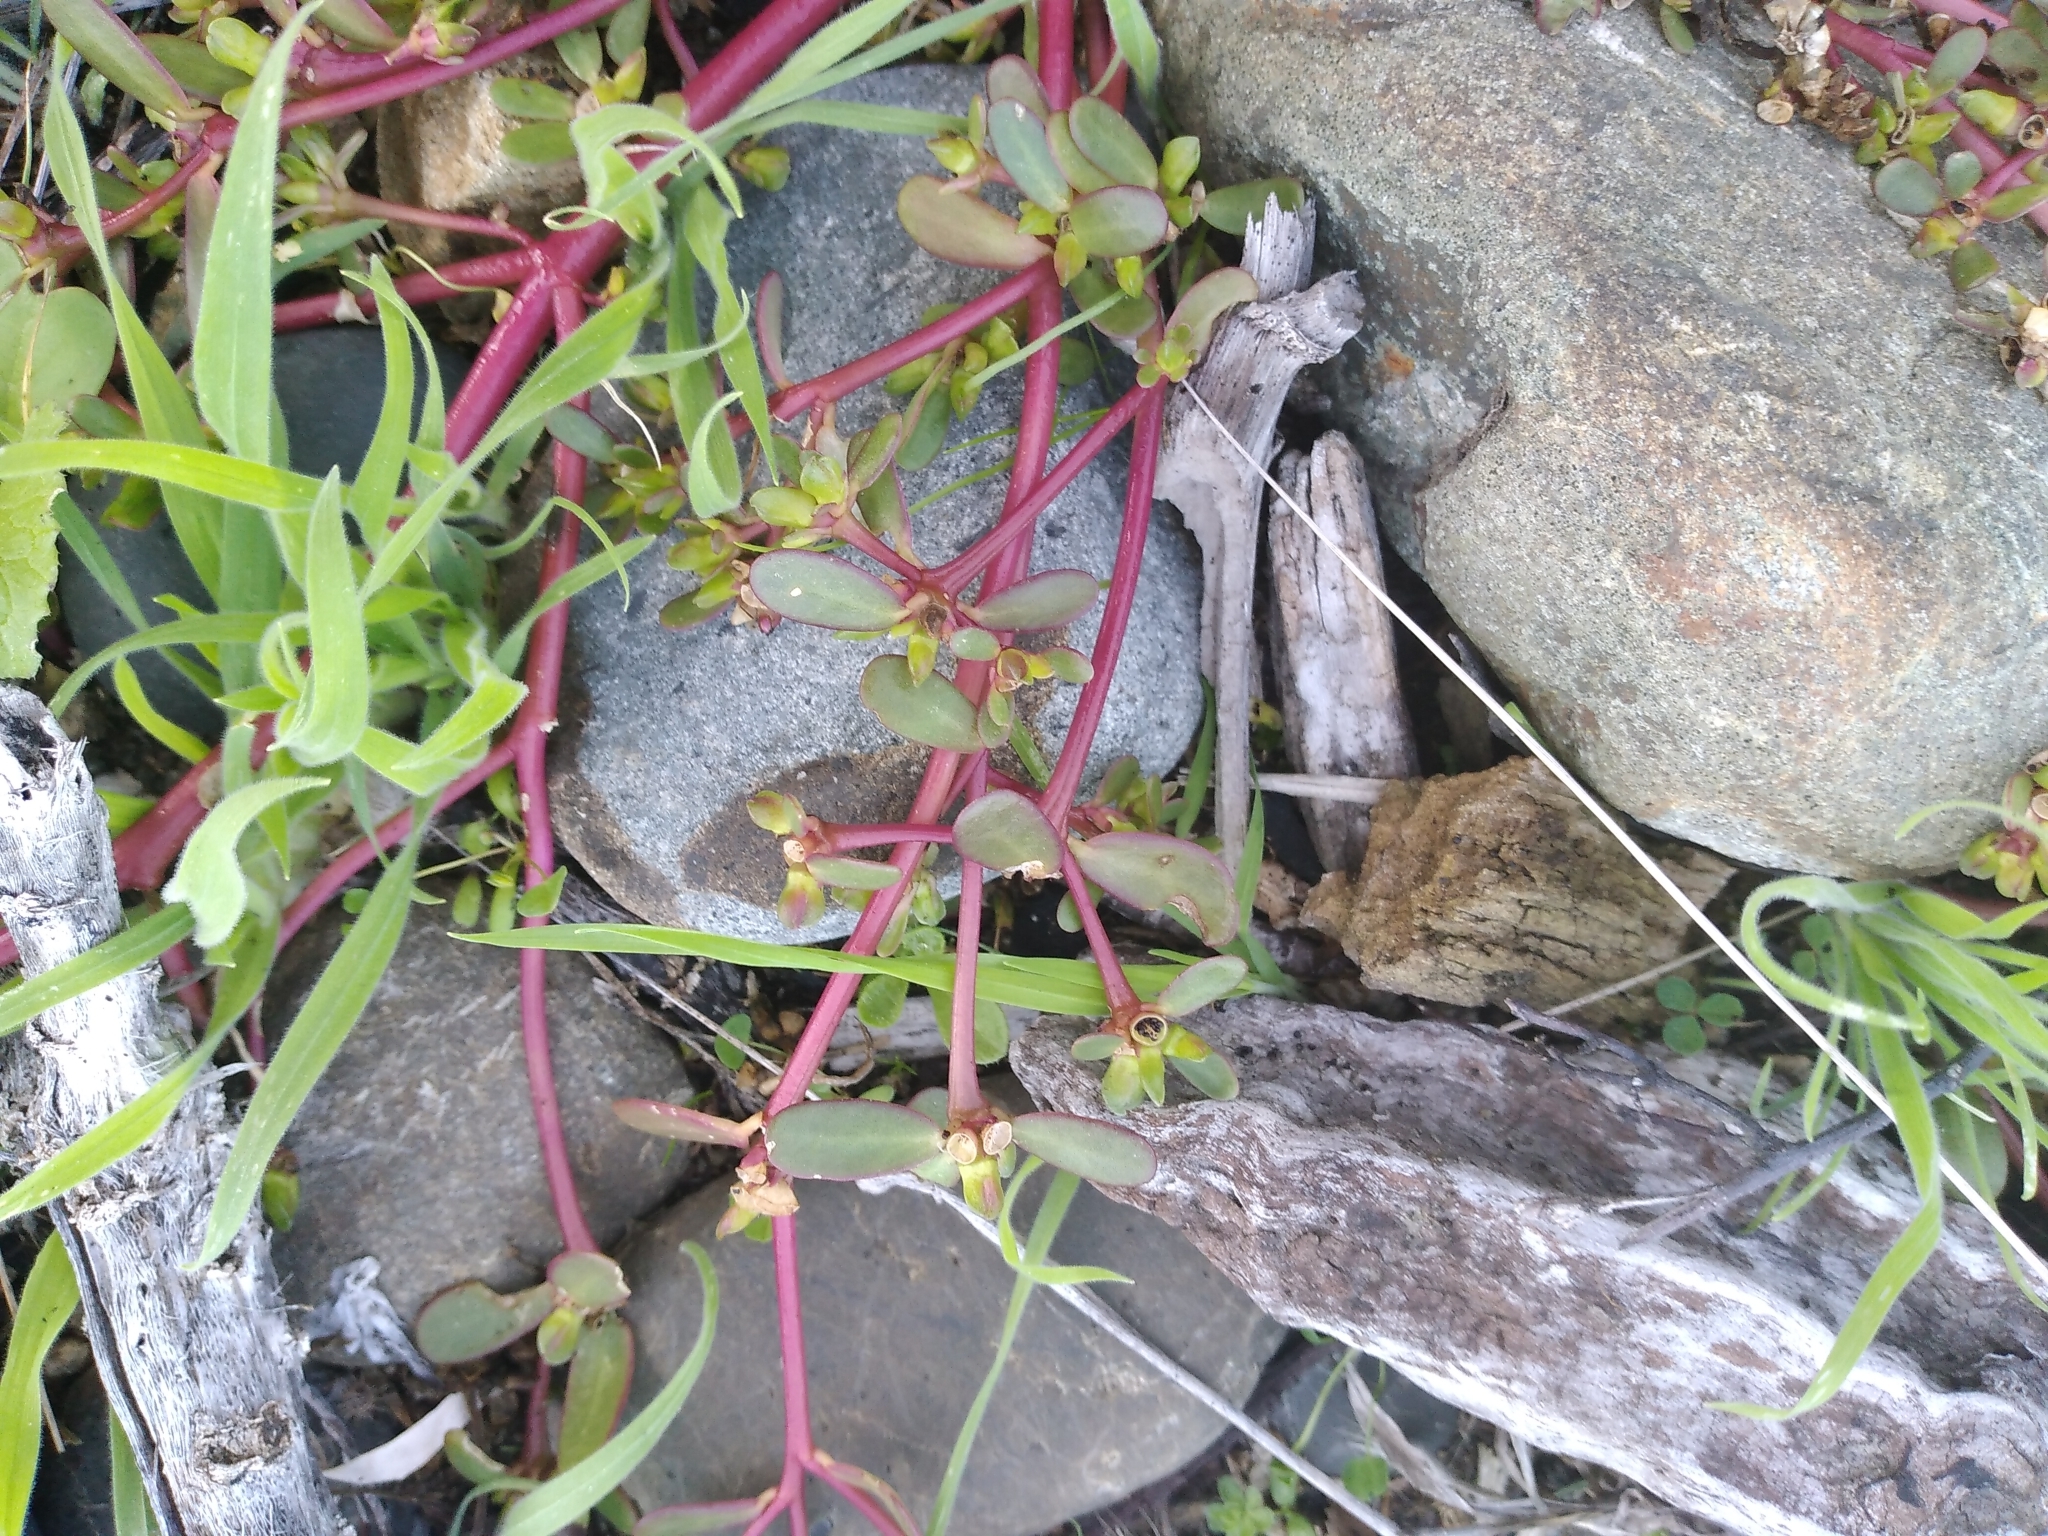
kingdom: Plantae
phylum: Tracheophyta
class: Magnoliopsida
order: Caryophyllales
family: Portulacaceae
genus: Portulaca
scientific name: Portulaca oleracea
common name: Common purslane
